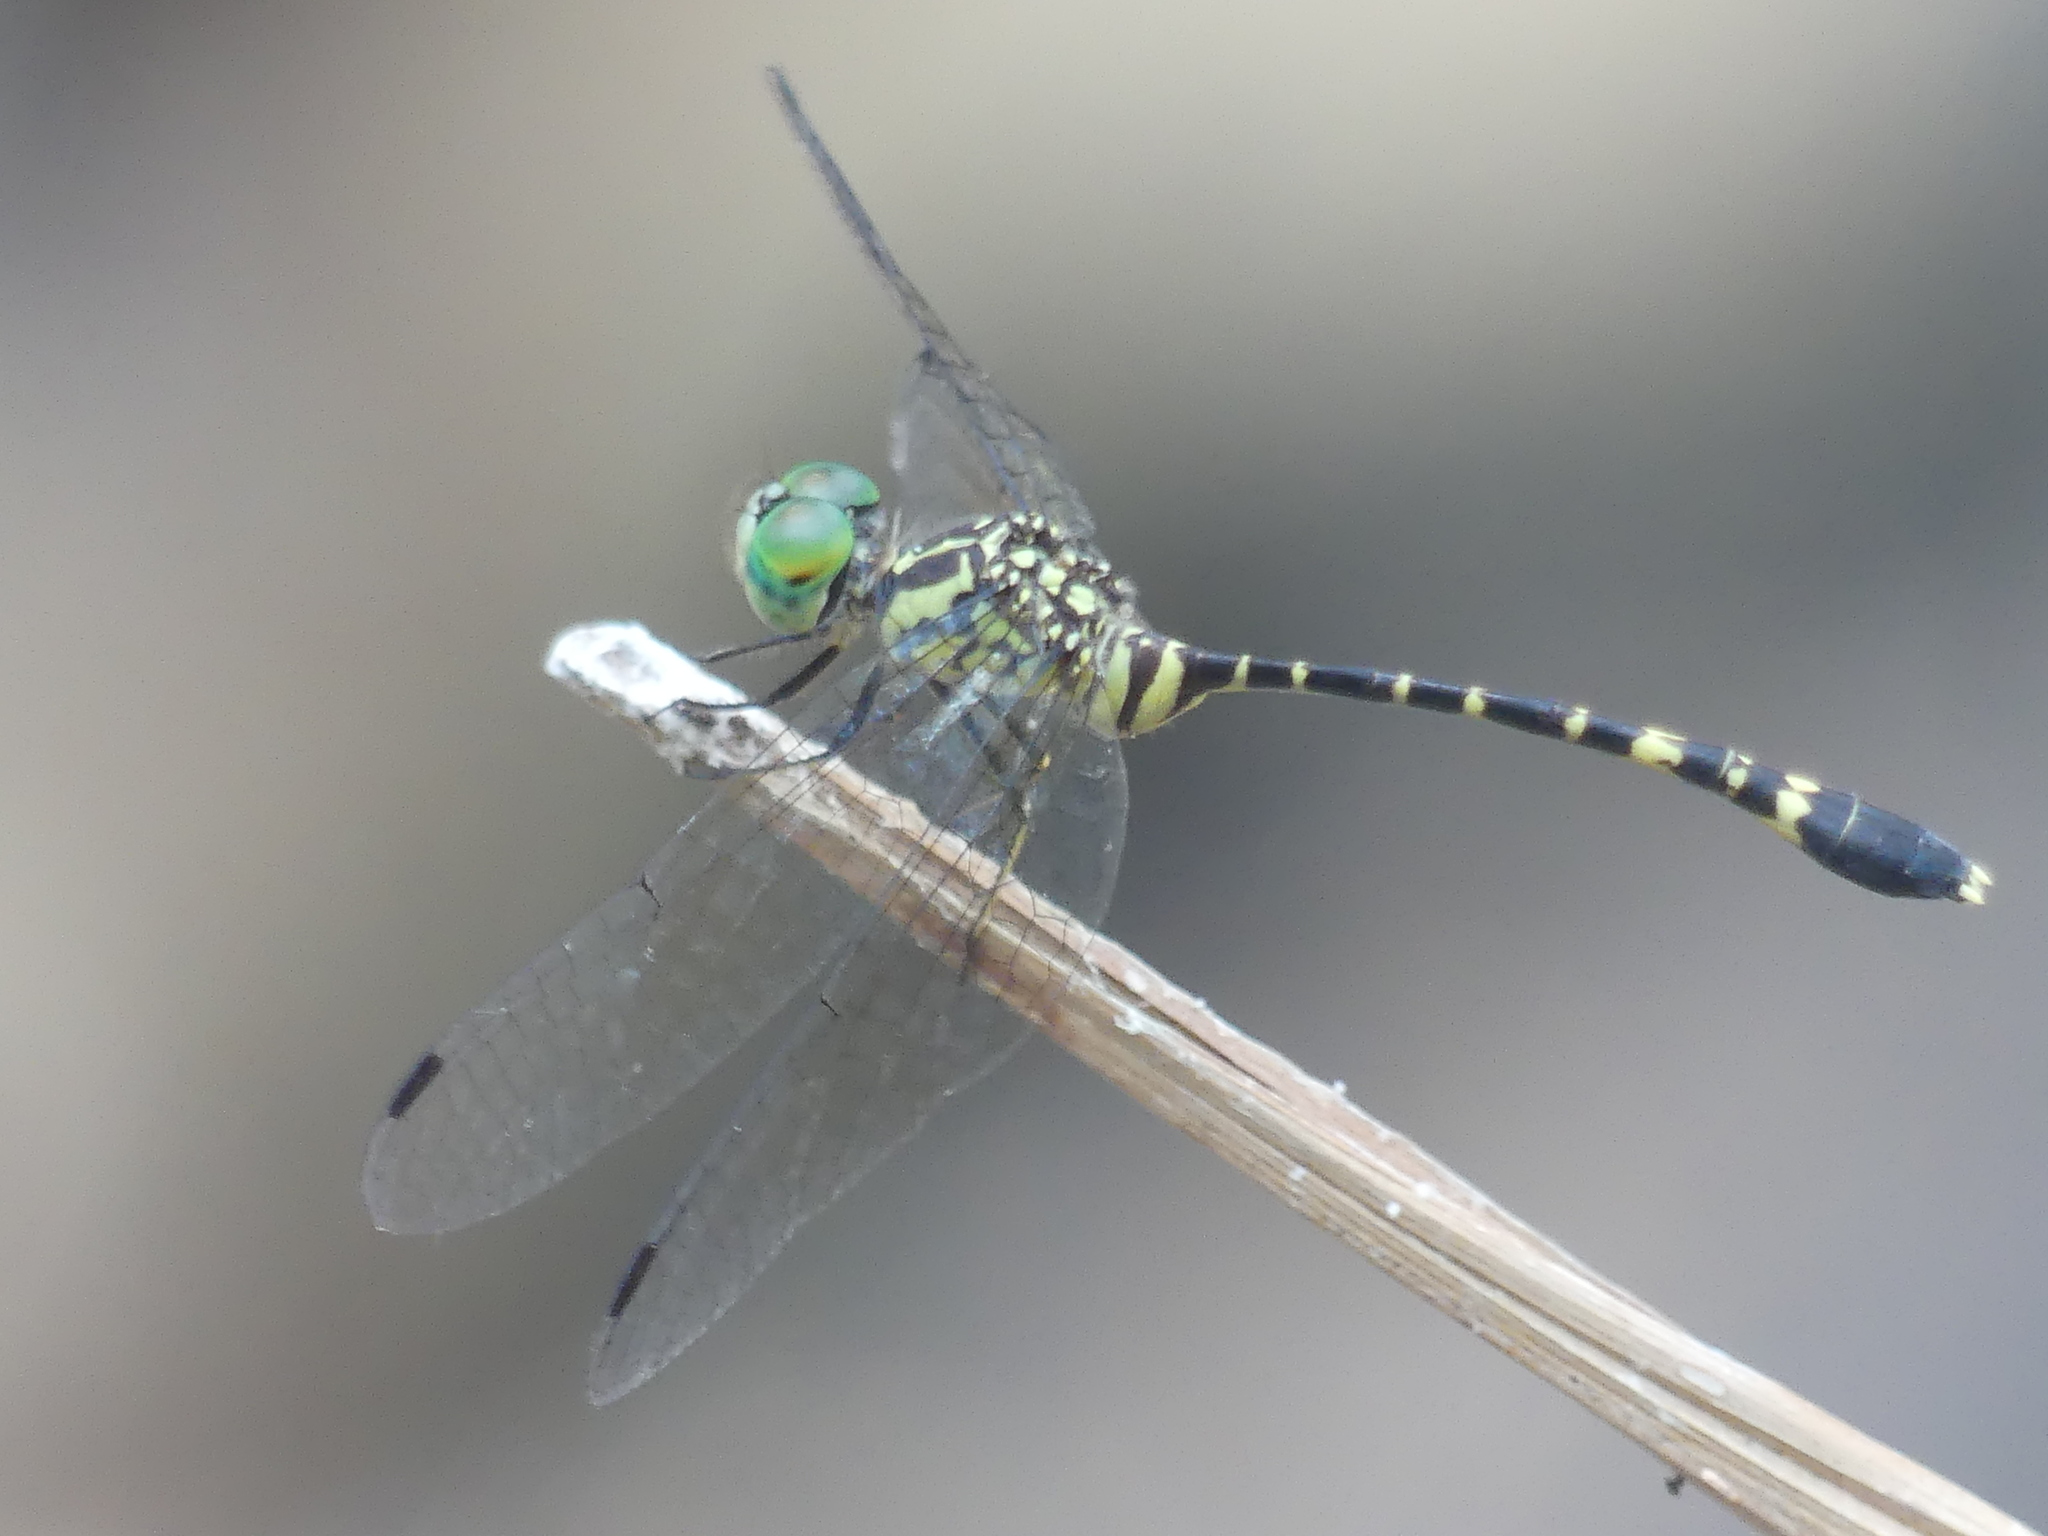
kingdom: Animalia
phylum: Arthropoda
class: Insecta
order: Odonata
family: Libellulidae
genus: Nannophlebia
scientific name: Nannophlebia risi
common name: Common archtail
